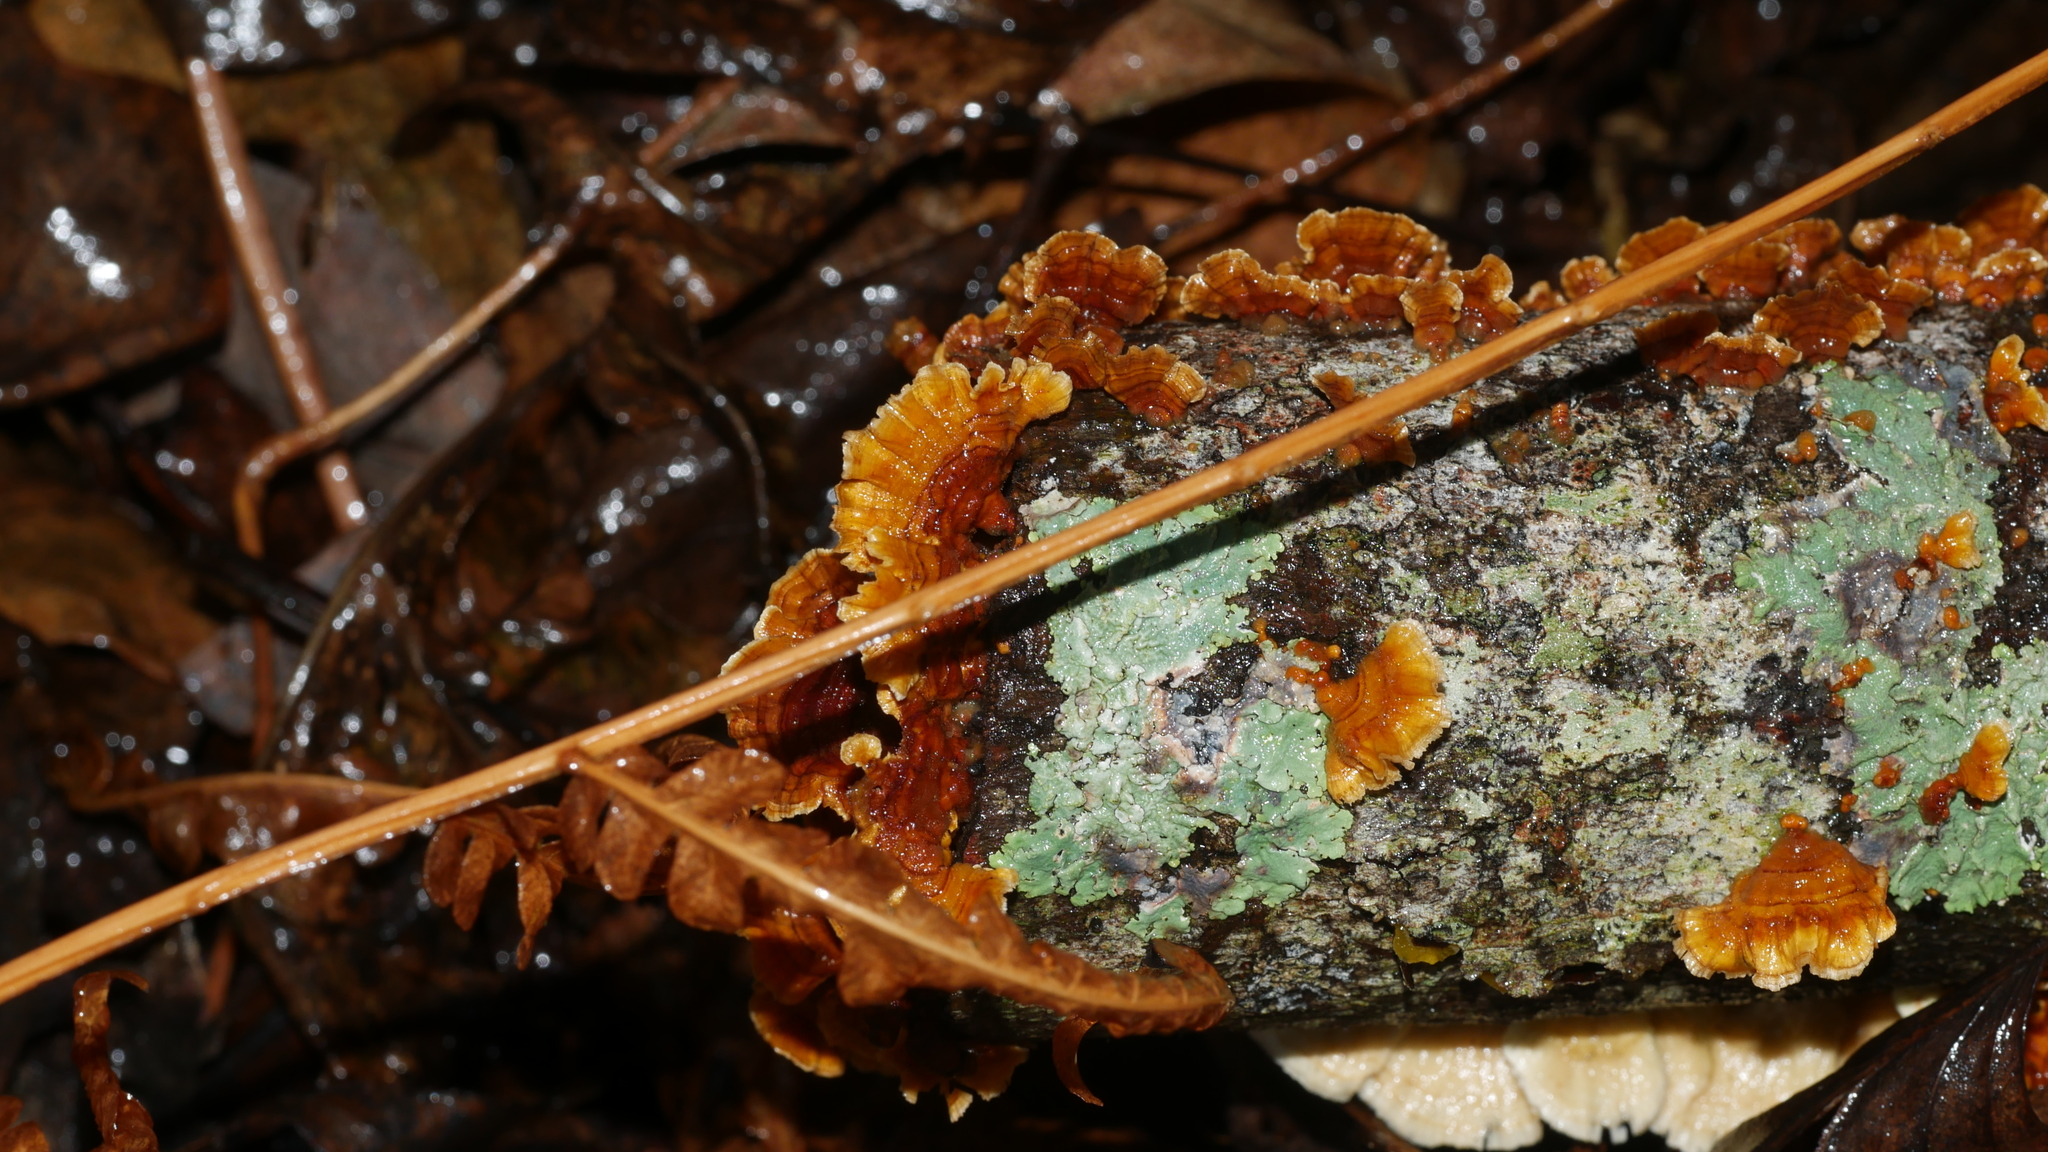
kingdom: Fungi
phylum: Basidiomycota
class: Agaricomycetes
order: Russulales
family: Stereaceae
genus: Stereum
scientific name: Stereum complicatum
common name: Crowded parchment
